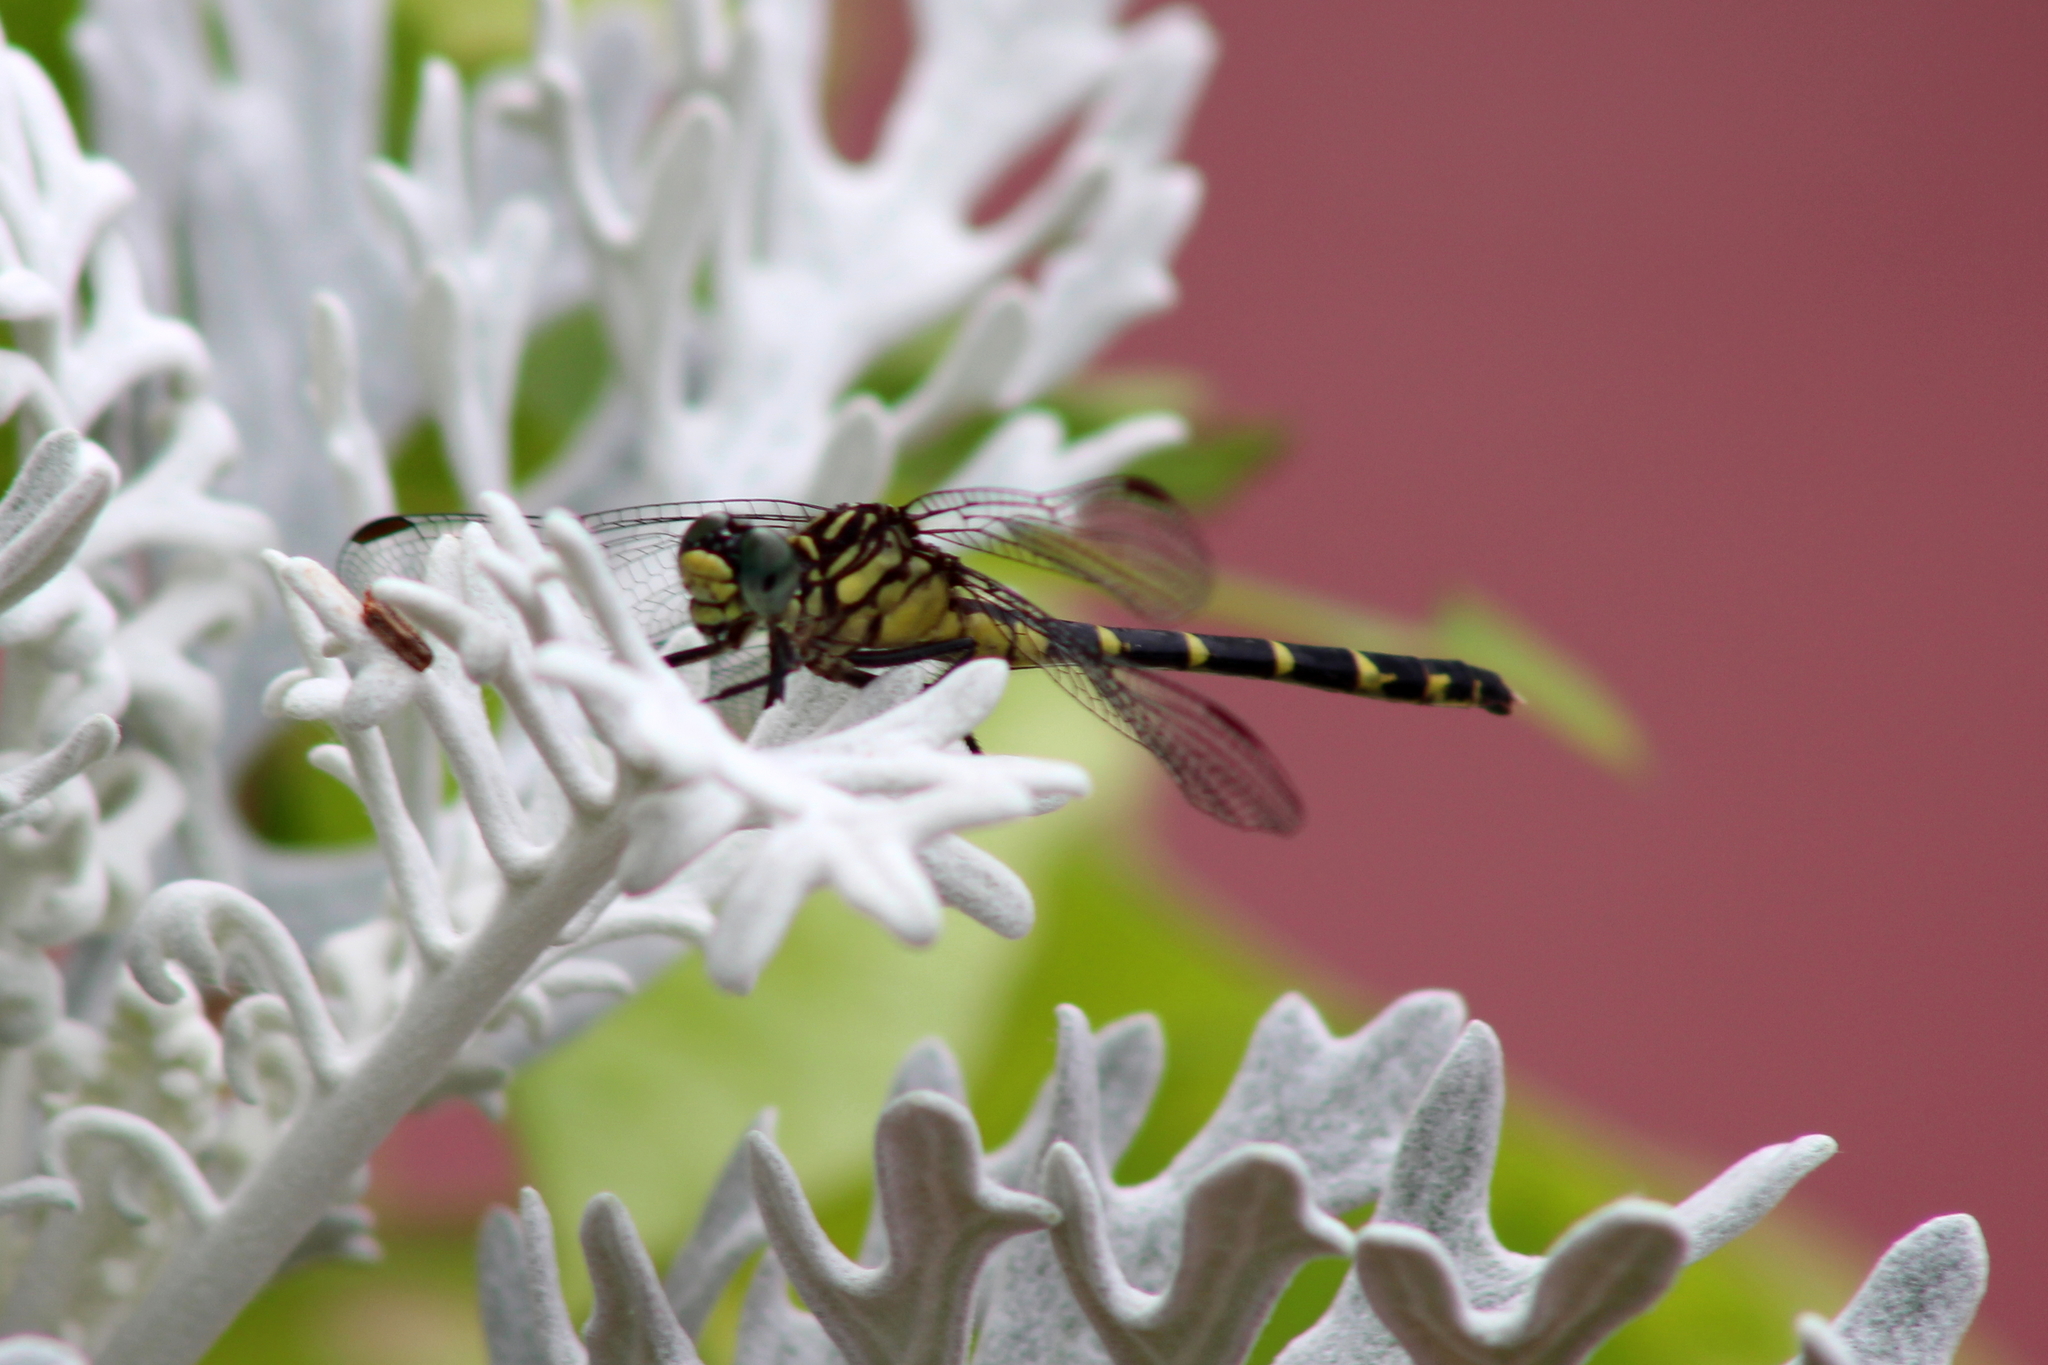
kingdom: Animalia
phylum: Arthropoda
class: Insecta
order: Odonata
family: Gomphidae
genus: Stylogomphus
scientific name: Stylogomphus albistylus
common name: Eastern least clubtail
